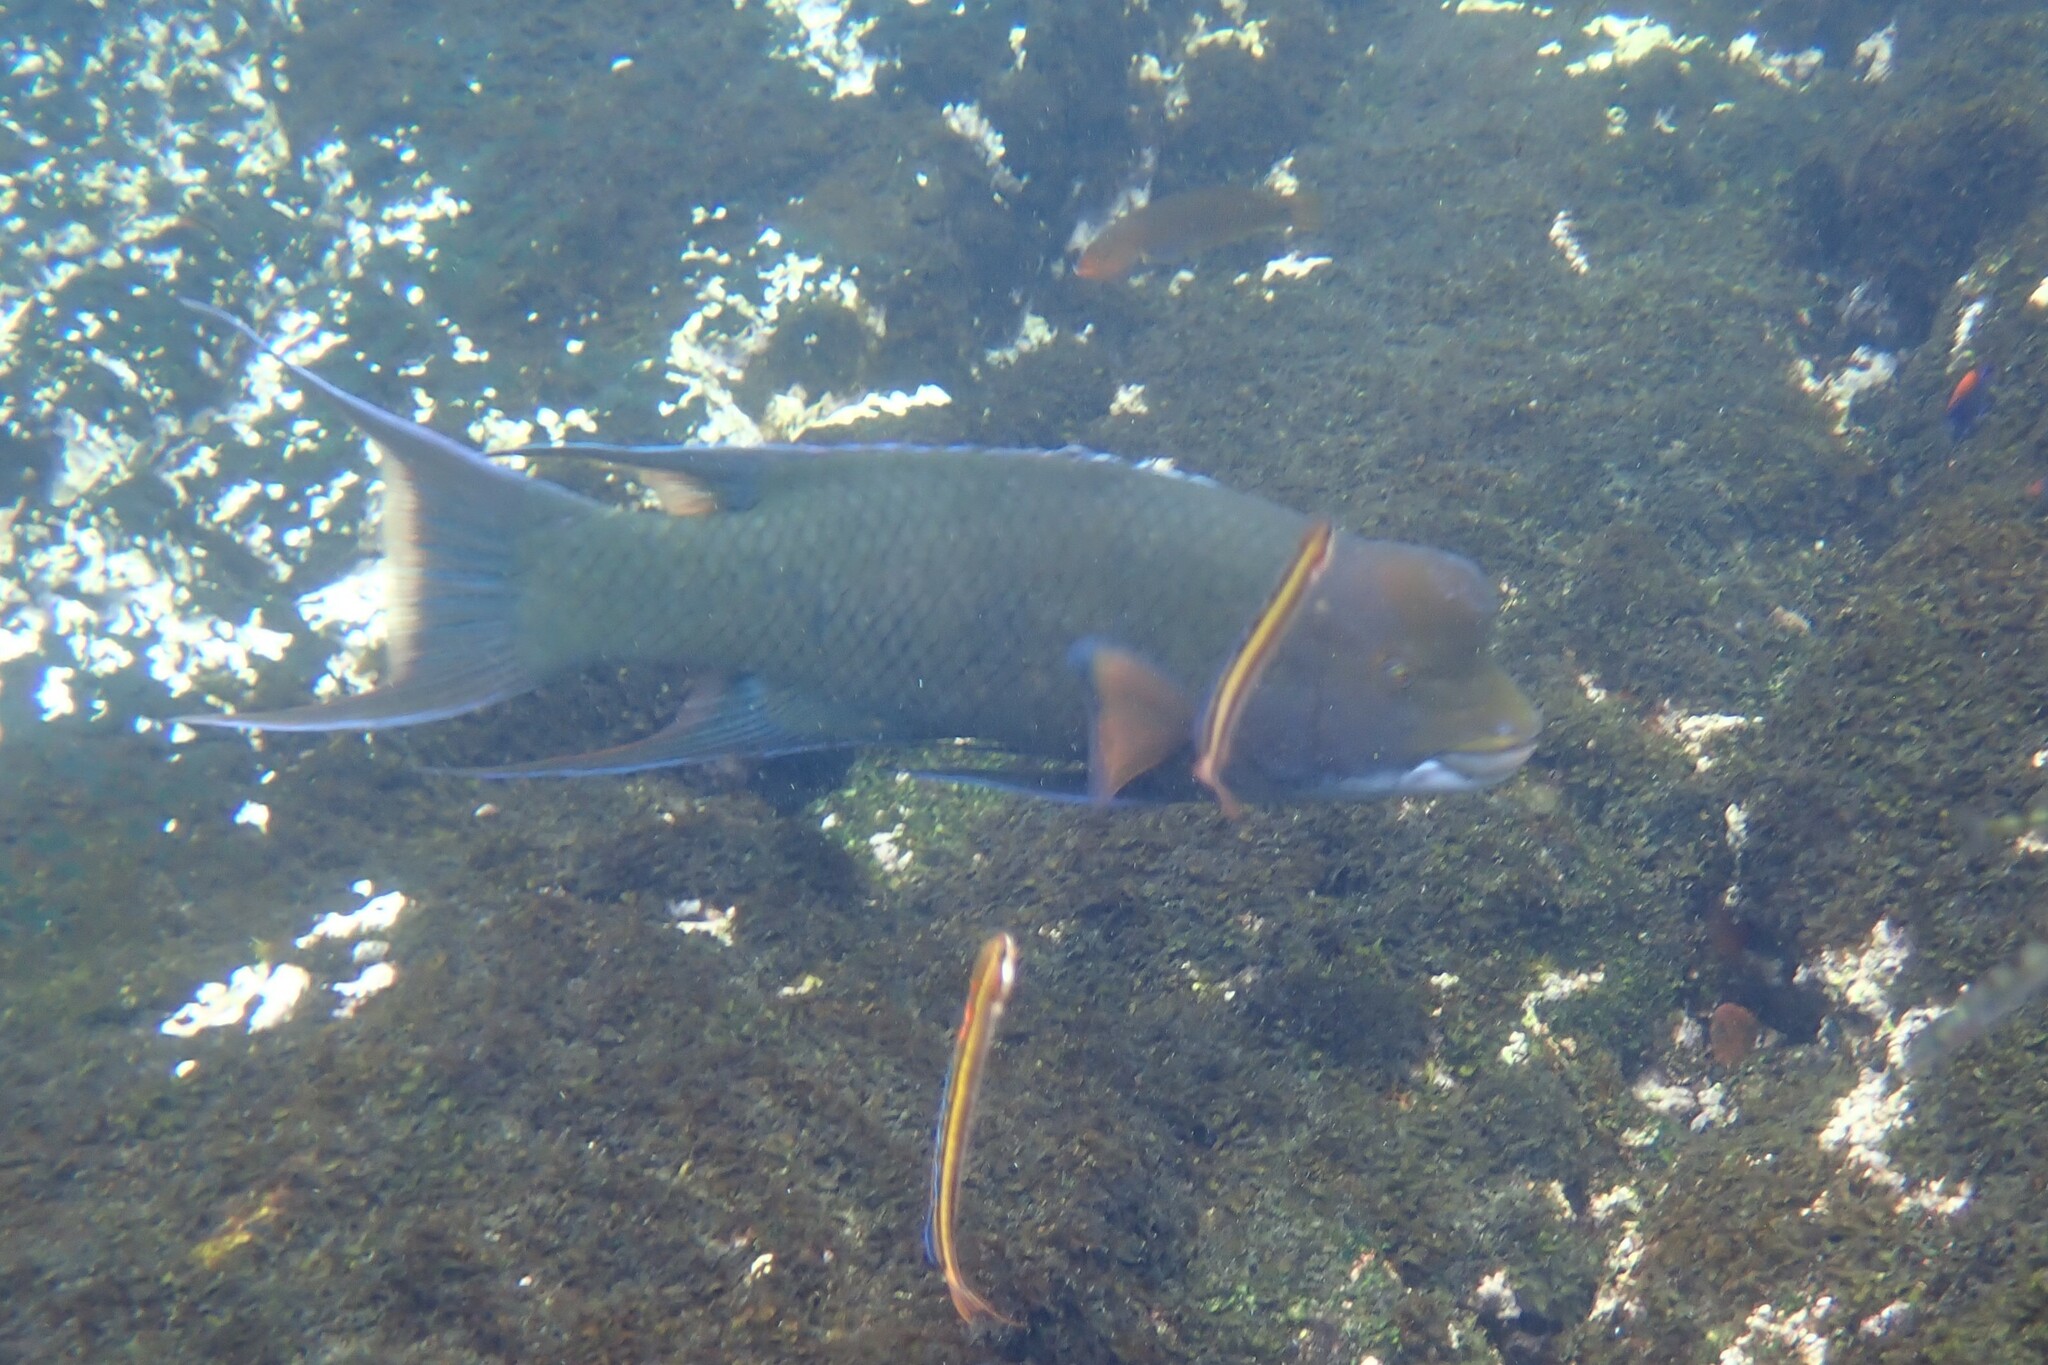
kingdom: Animalia
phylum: Chordata
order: Perciformes
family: Labridae
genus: Bodianus
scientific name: Bodianus diplotaenia
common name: Mexican hogfish
